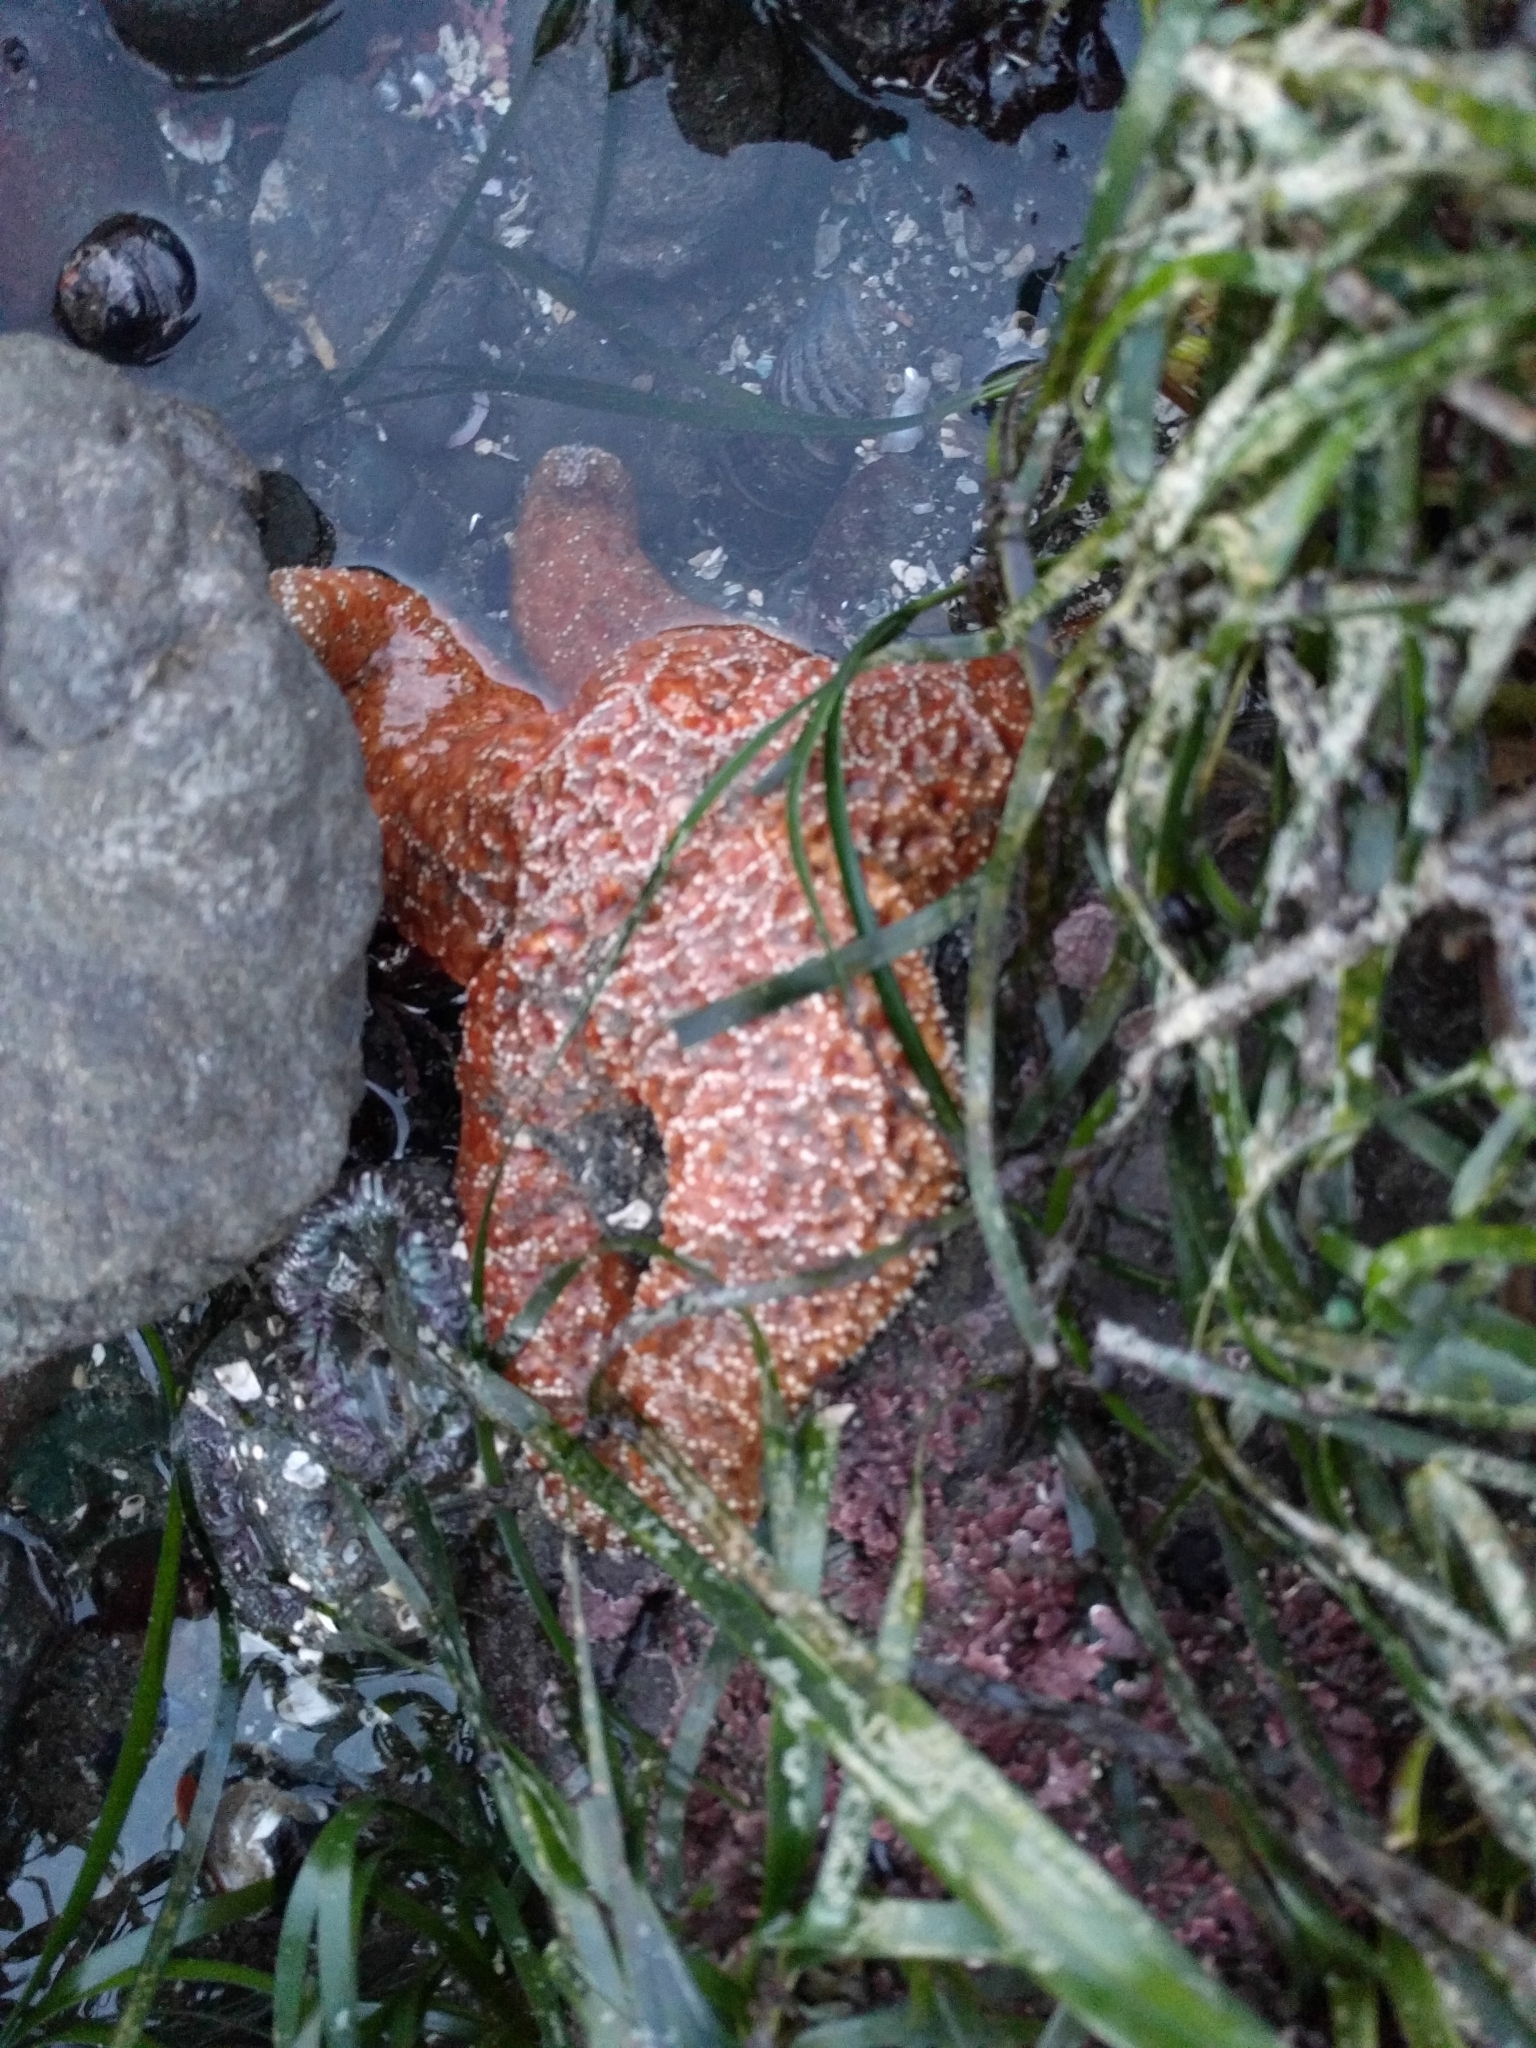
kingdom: Animalia
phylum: Echinodermata
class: Asteroidea
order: Forcipulatida
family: Asteriidae
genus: Pisaster
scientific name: Pisaster ochraceus
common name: Ochre stars
